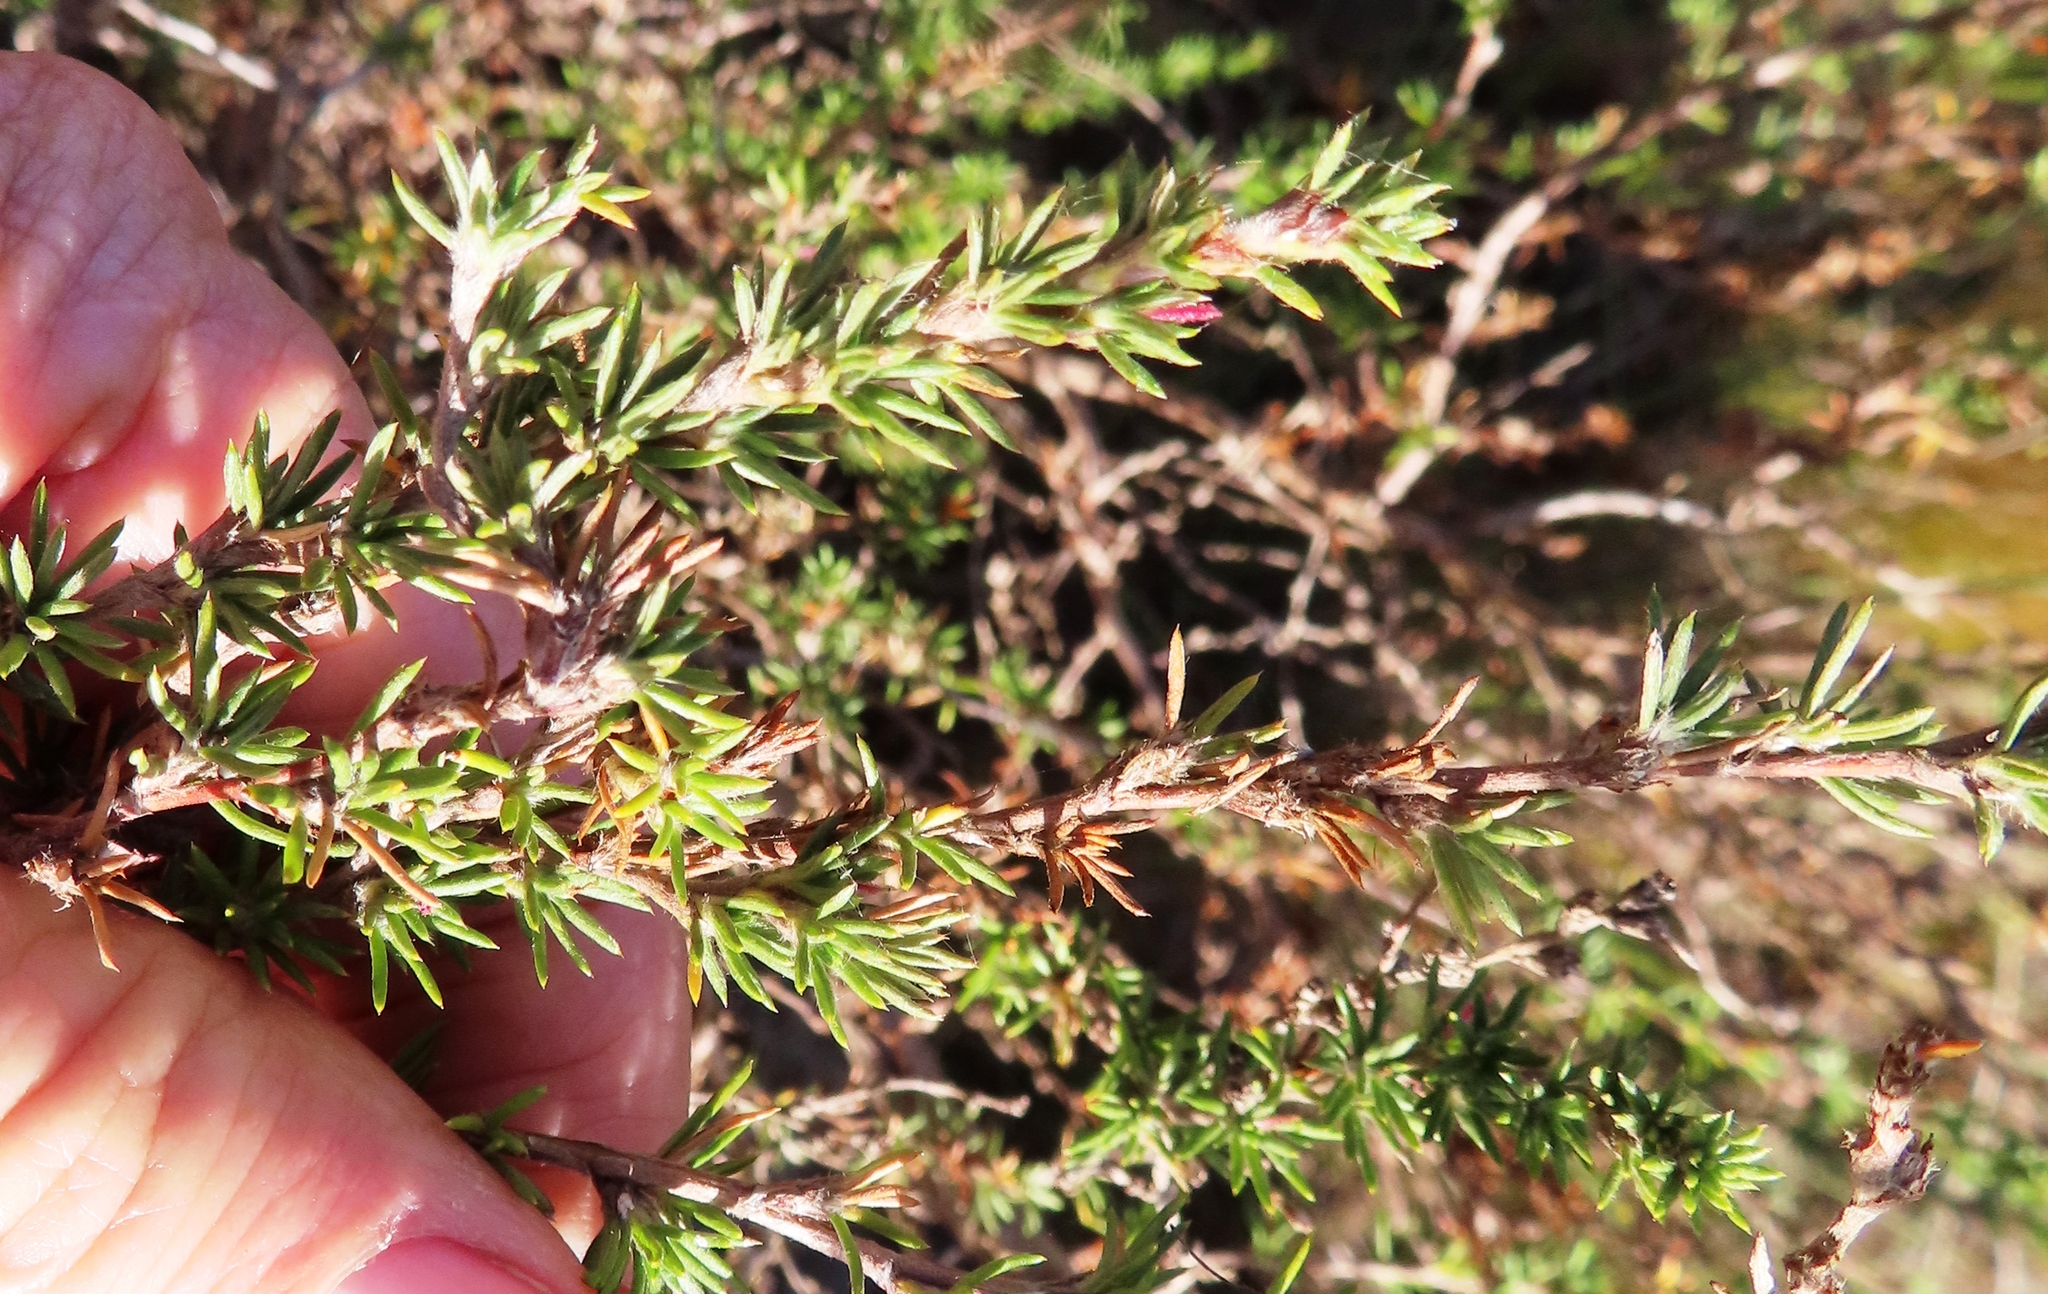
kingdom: Plantae
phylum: Tracheophyta
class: Magnoliopsida
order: Rosales
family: Rosaceae
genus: Cliffortia
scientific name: Cliffortia stricta
